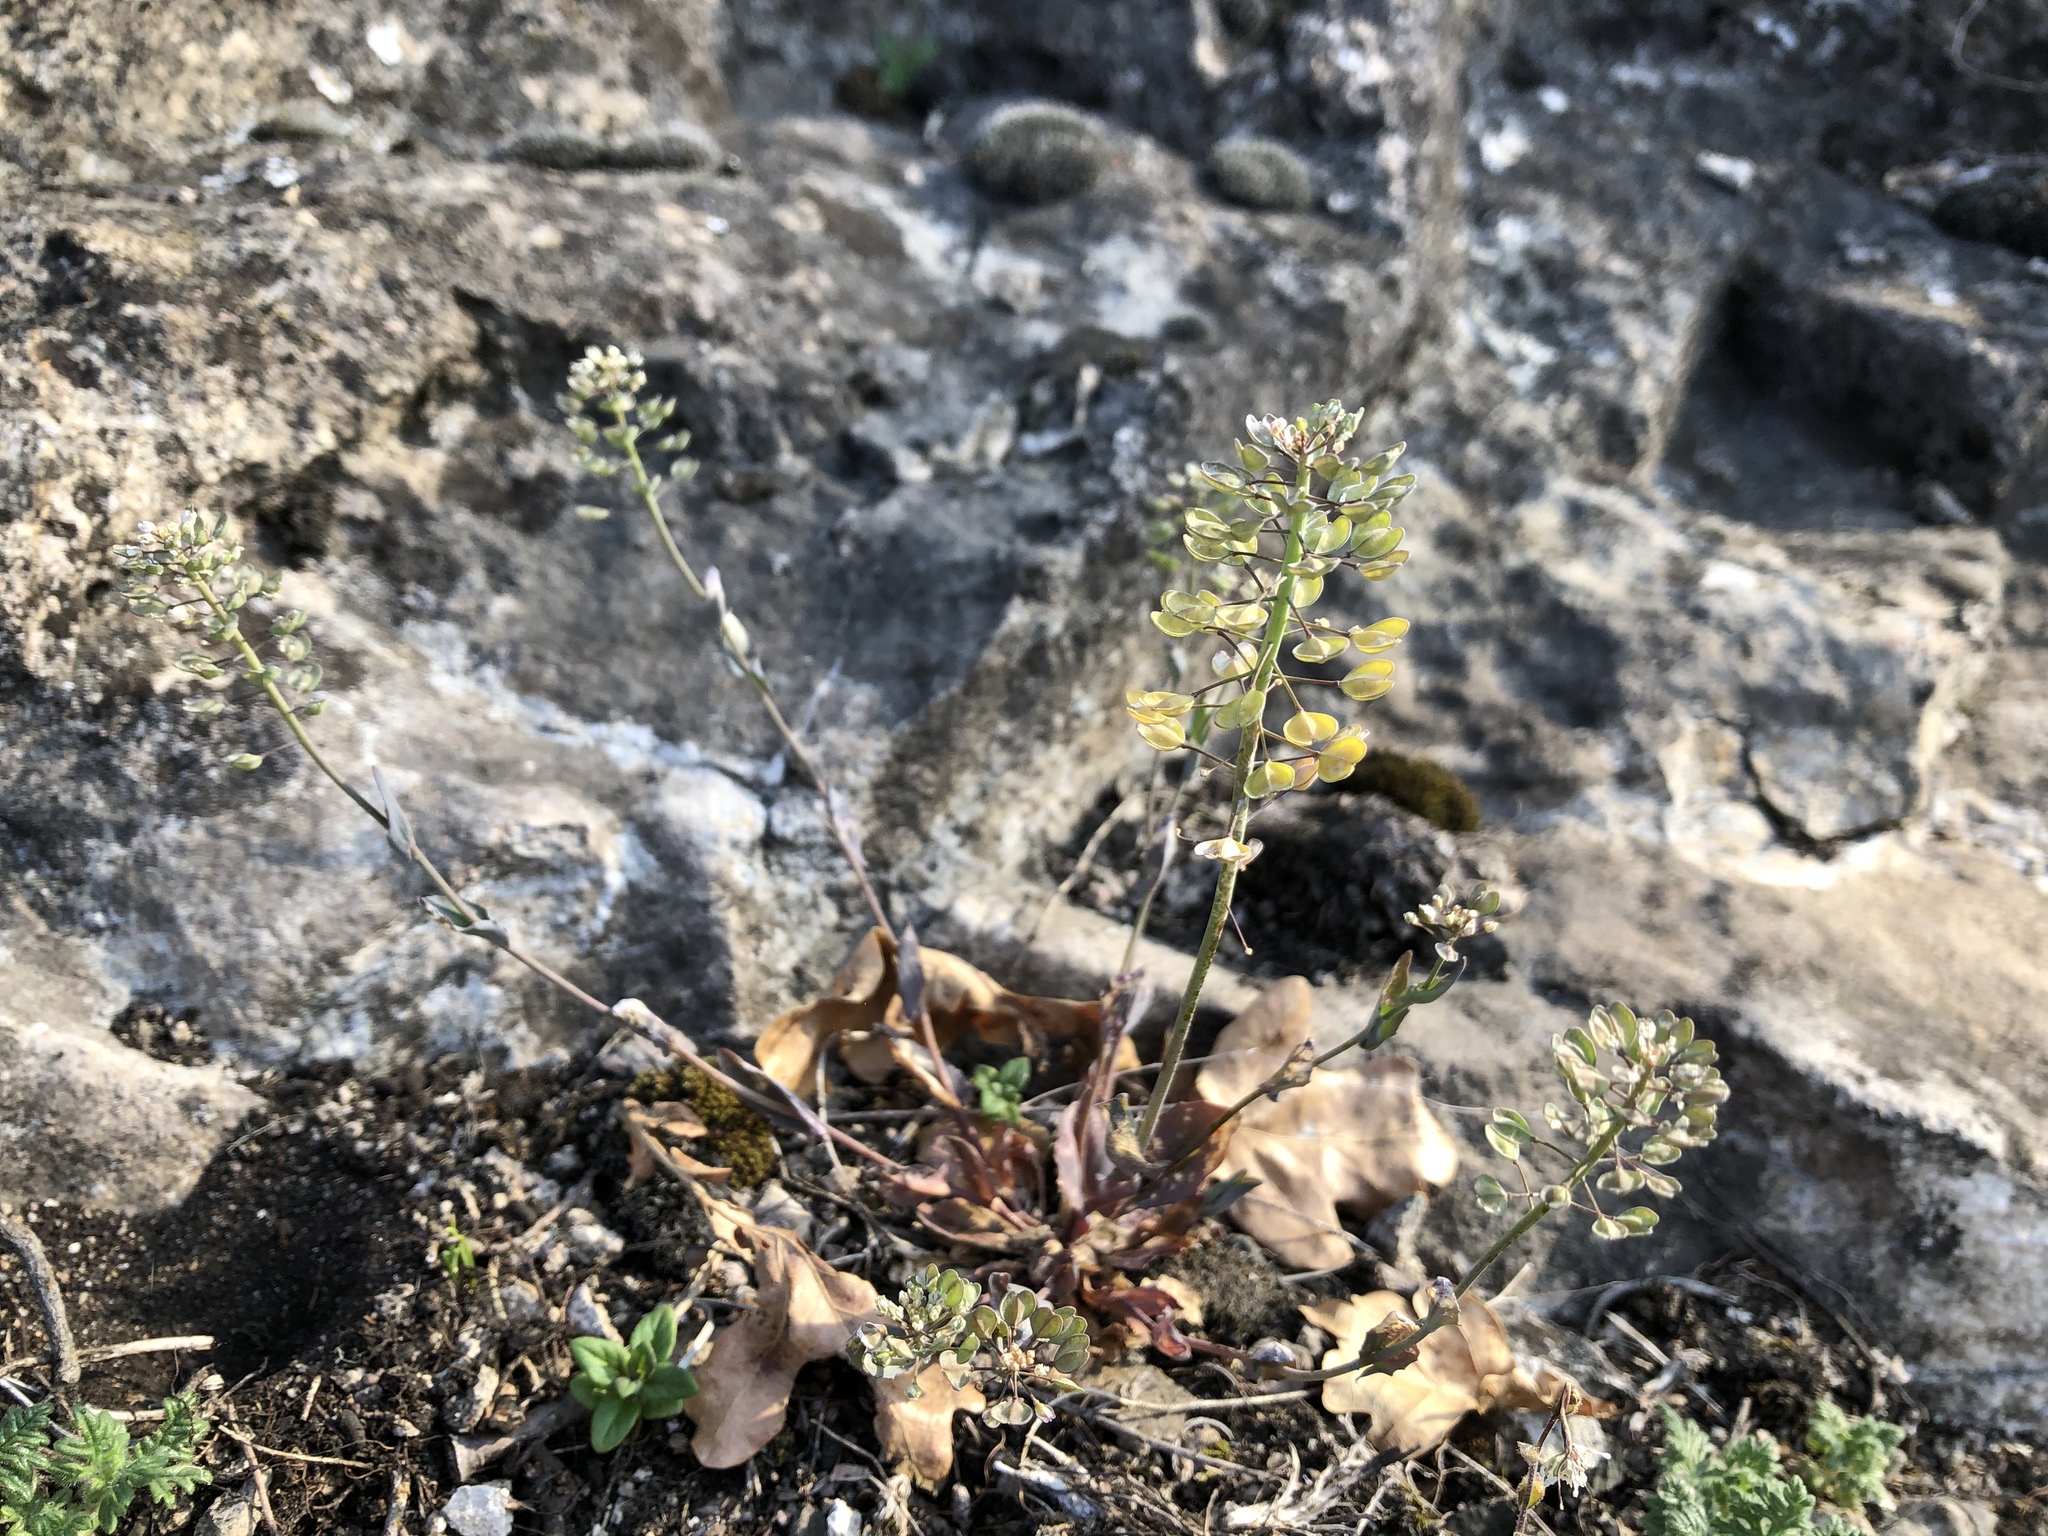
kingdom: Plantae
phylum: Tracheophyta
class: Magnoliopsida
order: Brassicales
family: Brassicaceae
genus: Noccaea
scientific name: Noccaea perfoliata
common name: Perfoliate pennycress
